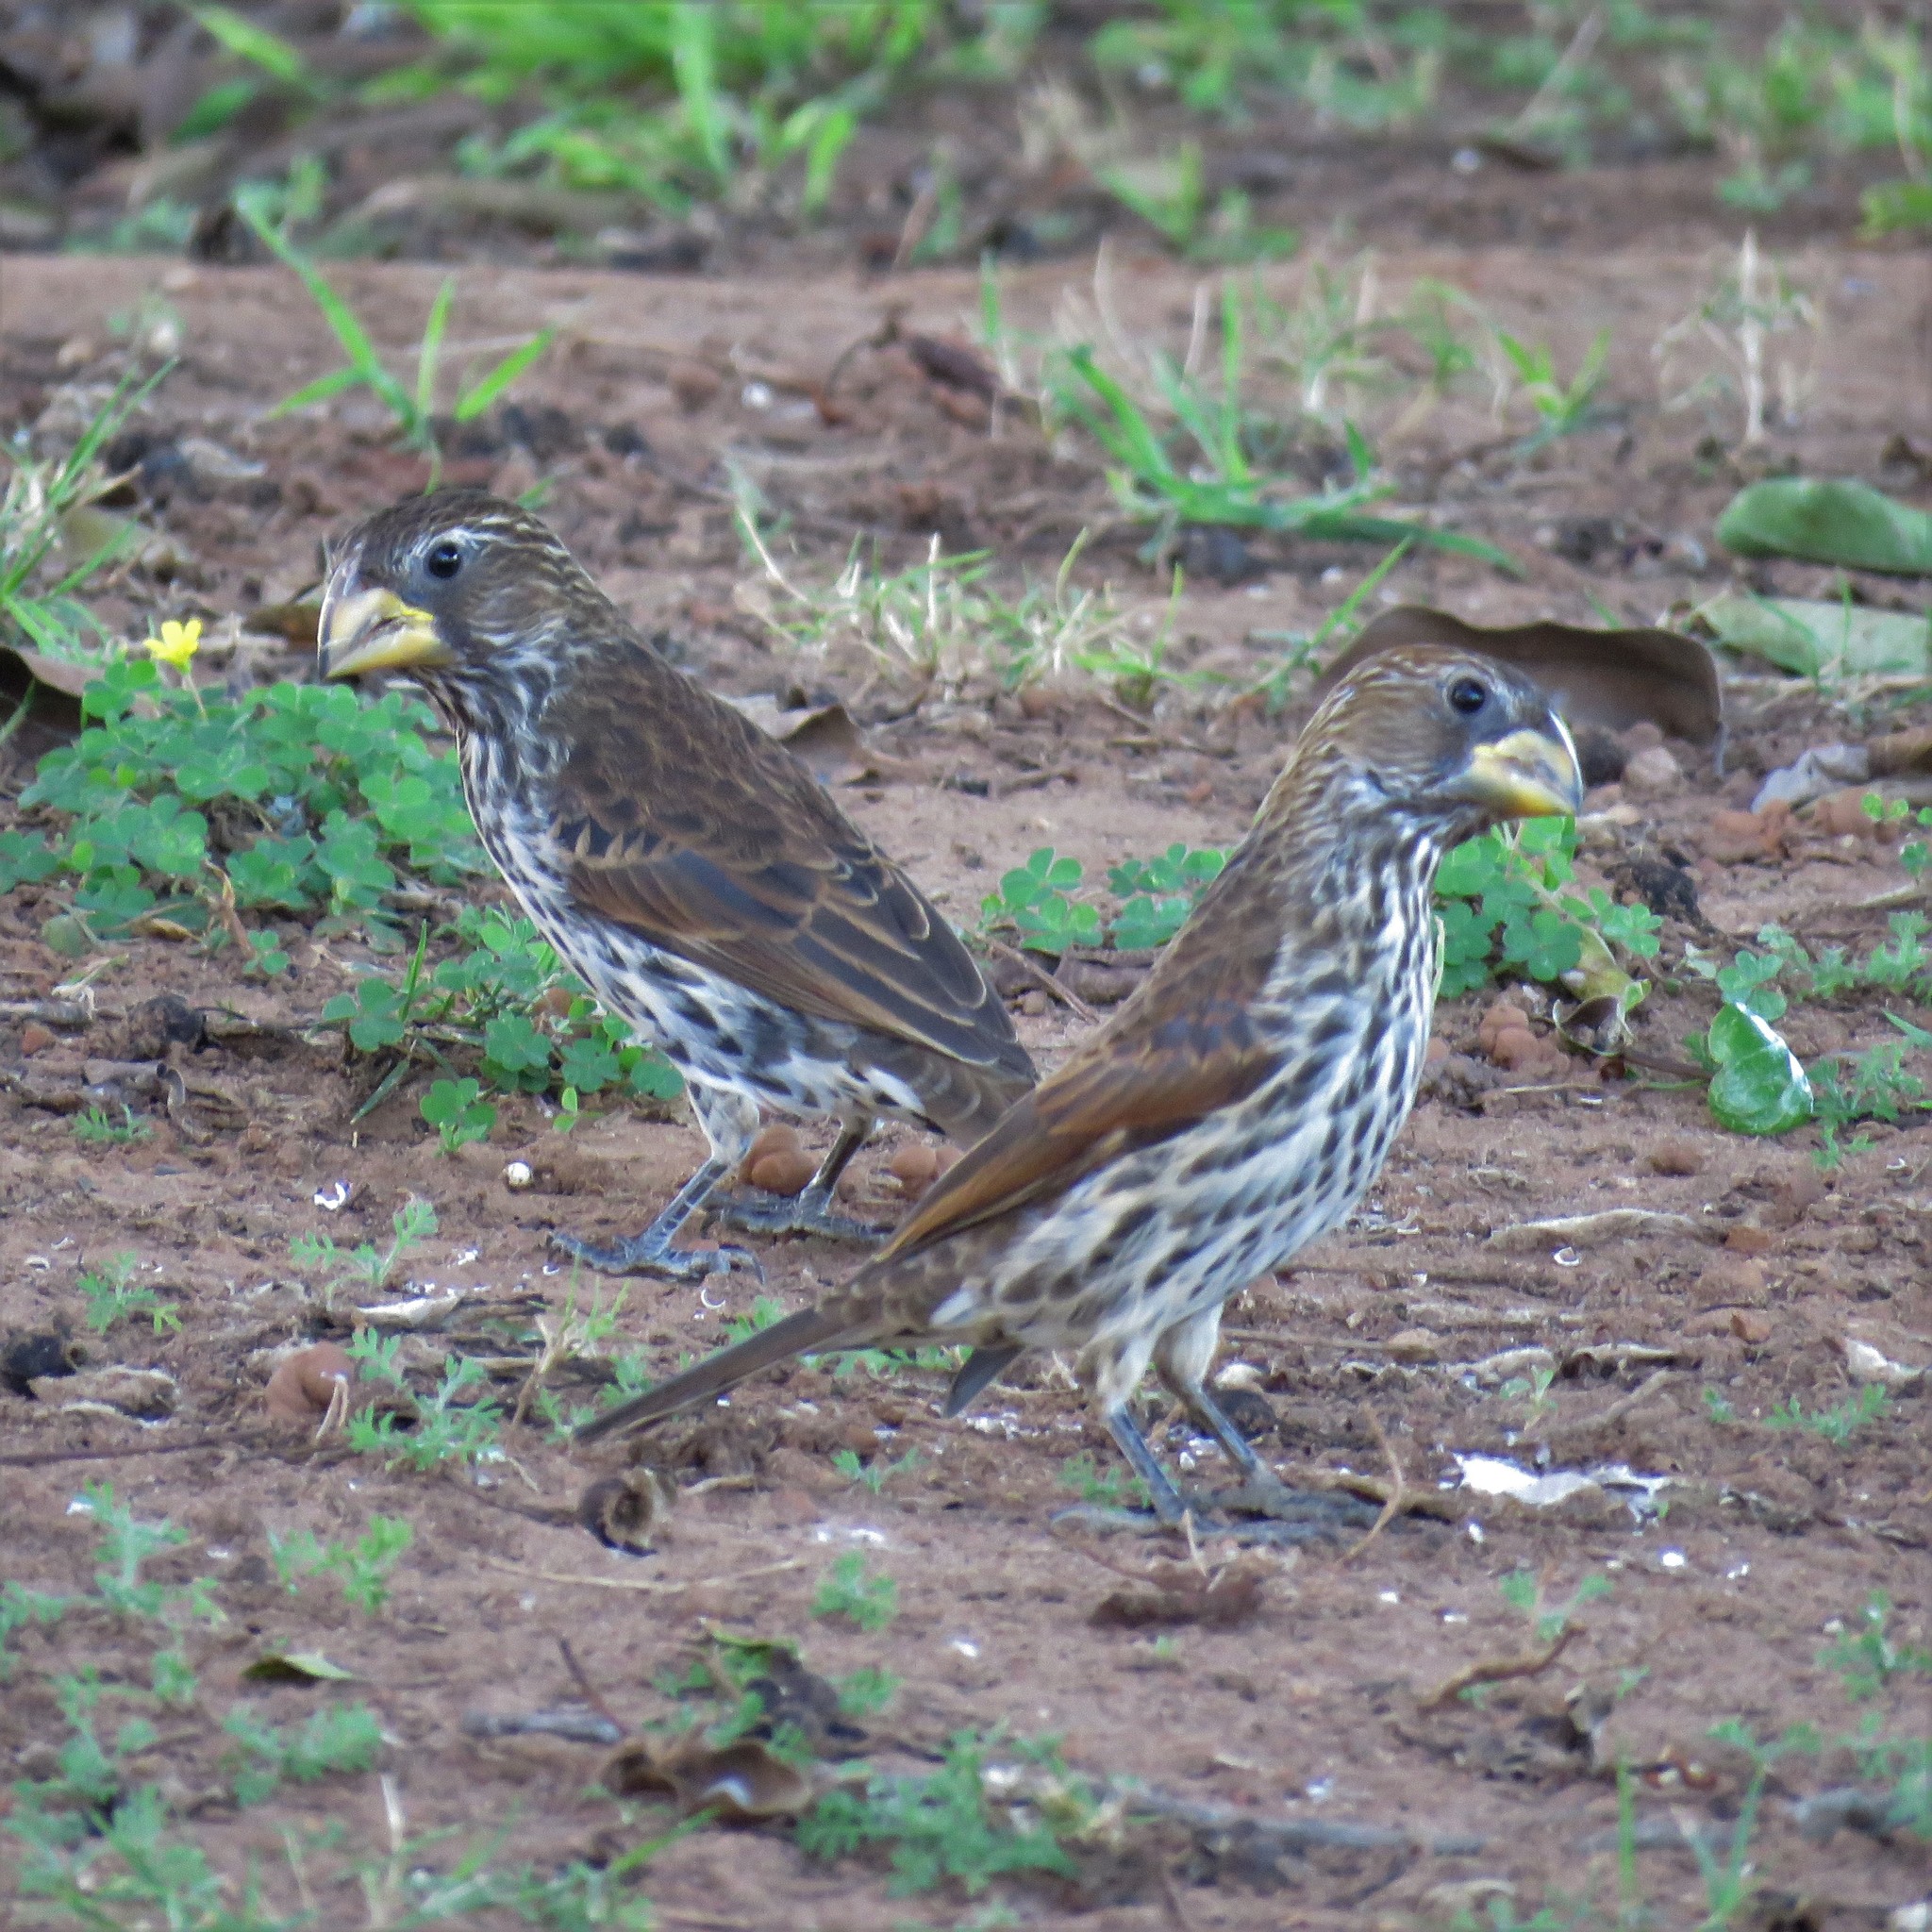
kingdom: Animalia
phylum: Chordata
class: Aves
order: Passeriformes
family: Ploceidae
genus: Amblyospiza
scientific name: Amblyospiza albifrons
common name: Thick-billed weaver
